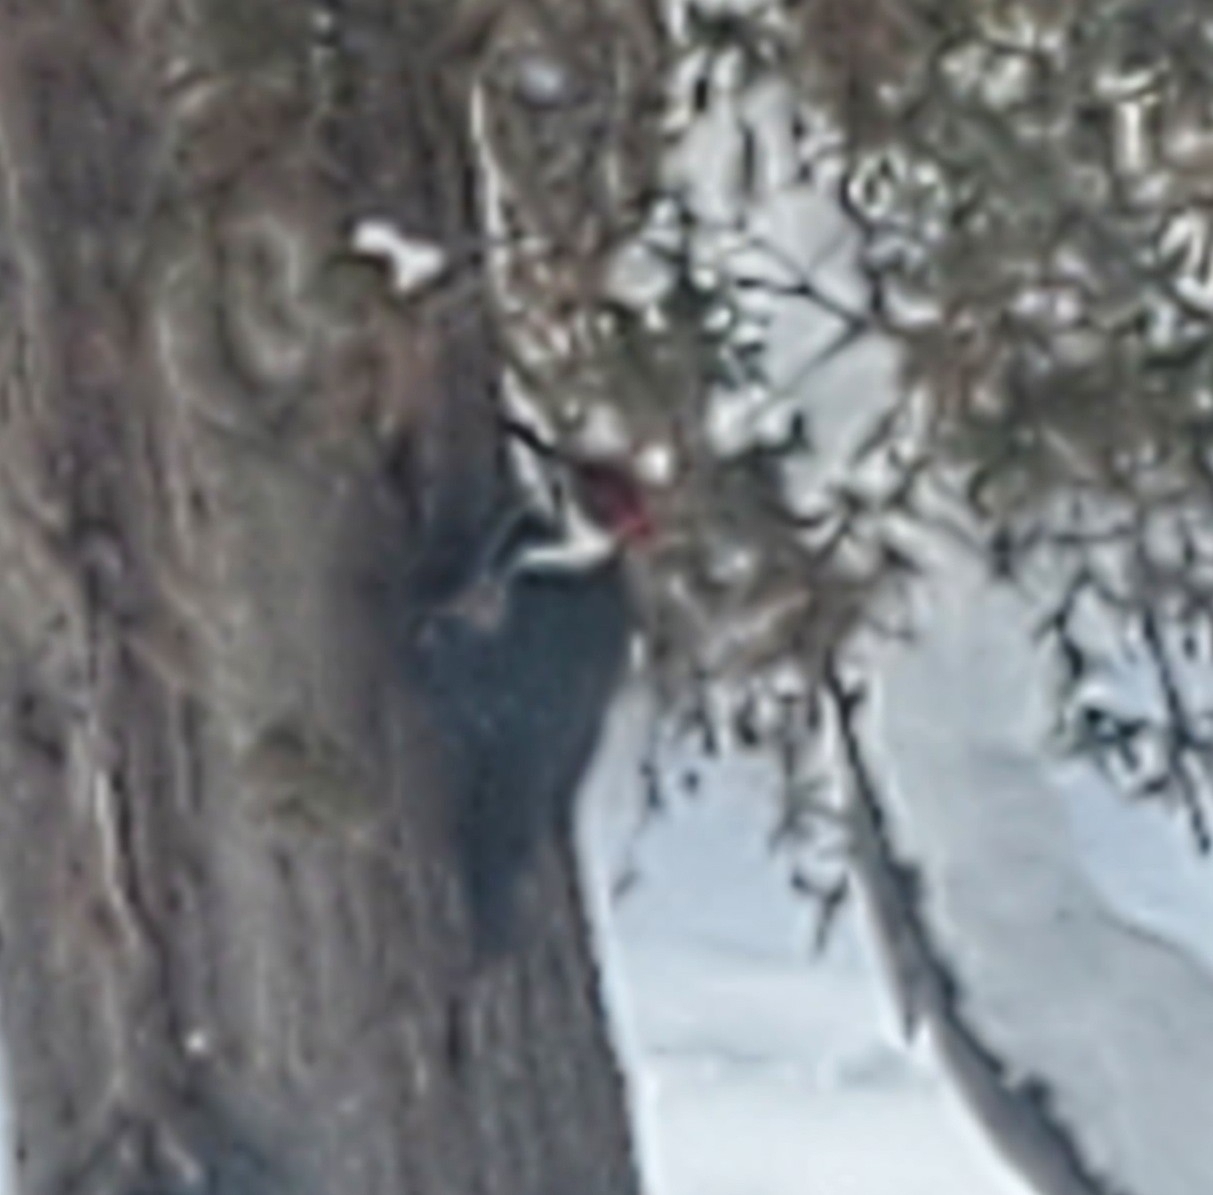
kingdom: Animalia
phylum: Chordata
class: Aves
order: Piciformes
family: Picidae
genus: Dryocopus
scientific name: Dryocopus pileatus
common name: Pileated woodpecker
